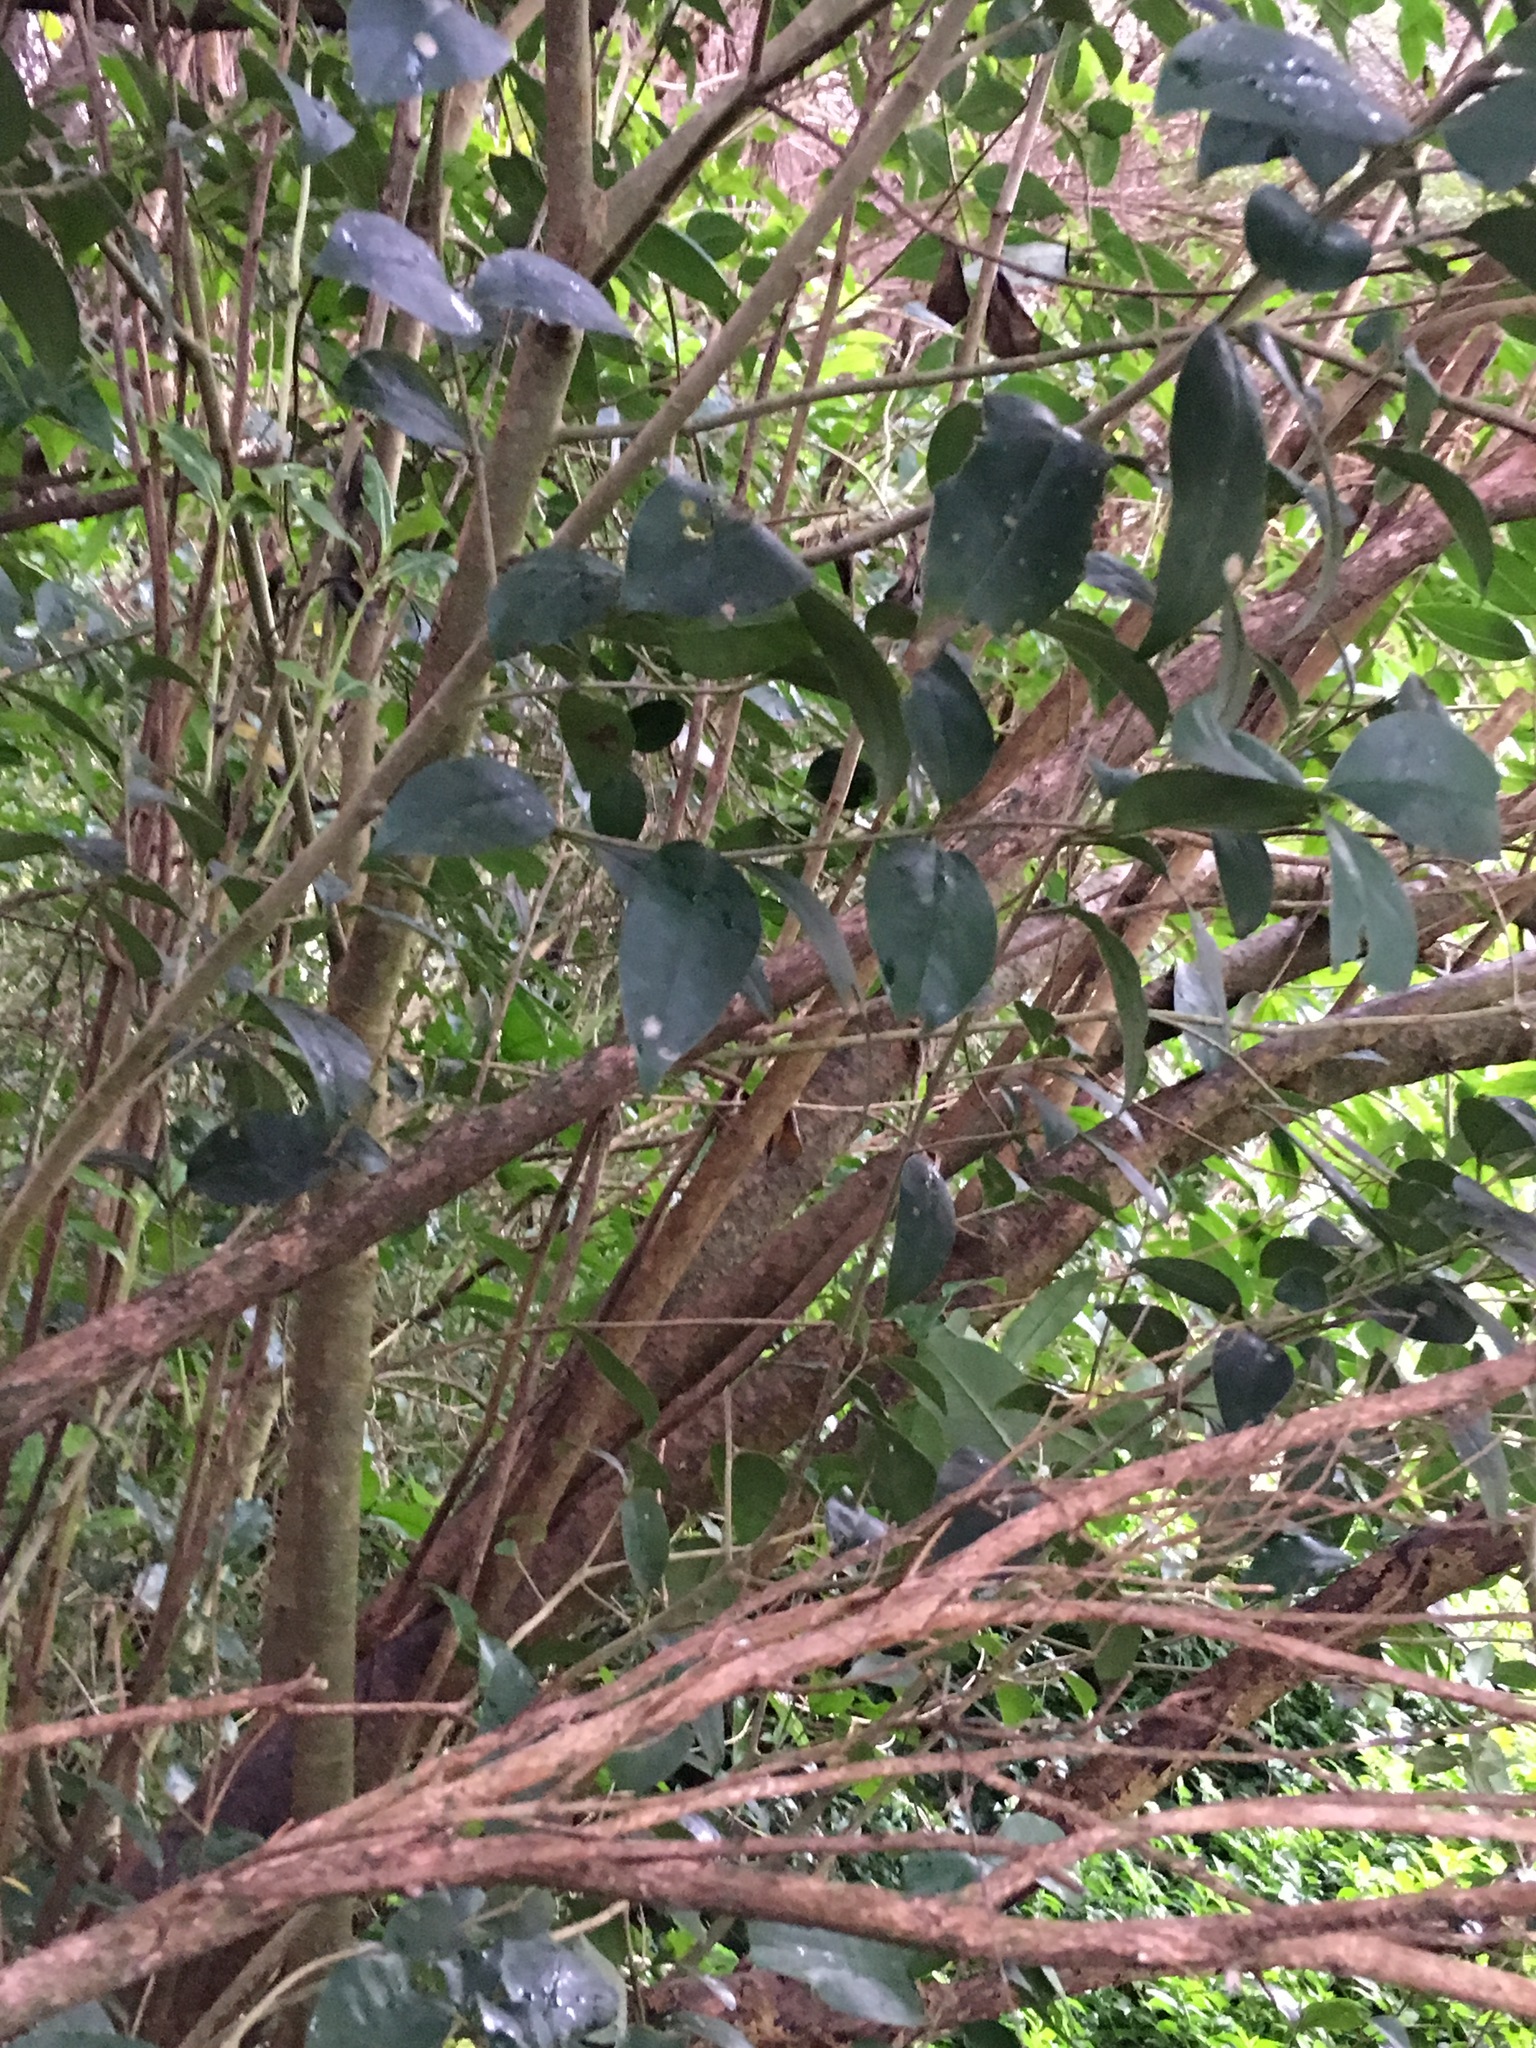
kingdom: Plantae
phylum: Tracheophyta
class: Magnoliopsida
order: Lamiales
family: Oleaceae
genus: Ligustrum
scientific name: Ligustrum lucidum
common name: Glossy privet
